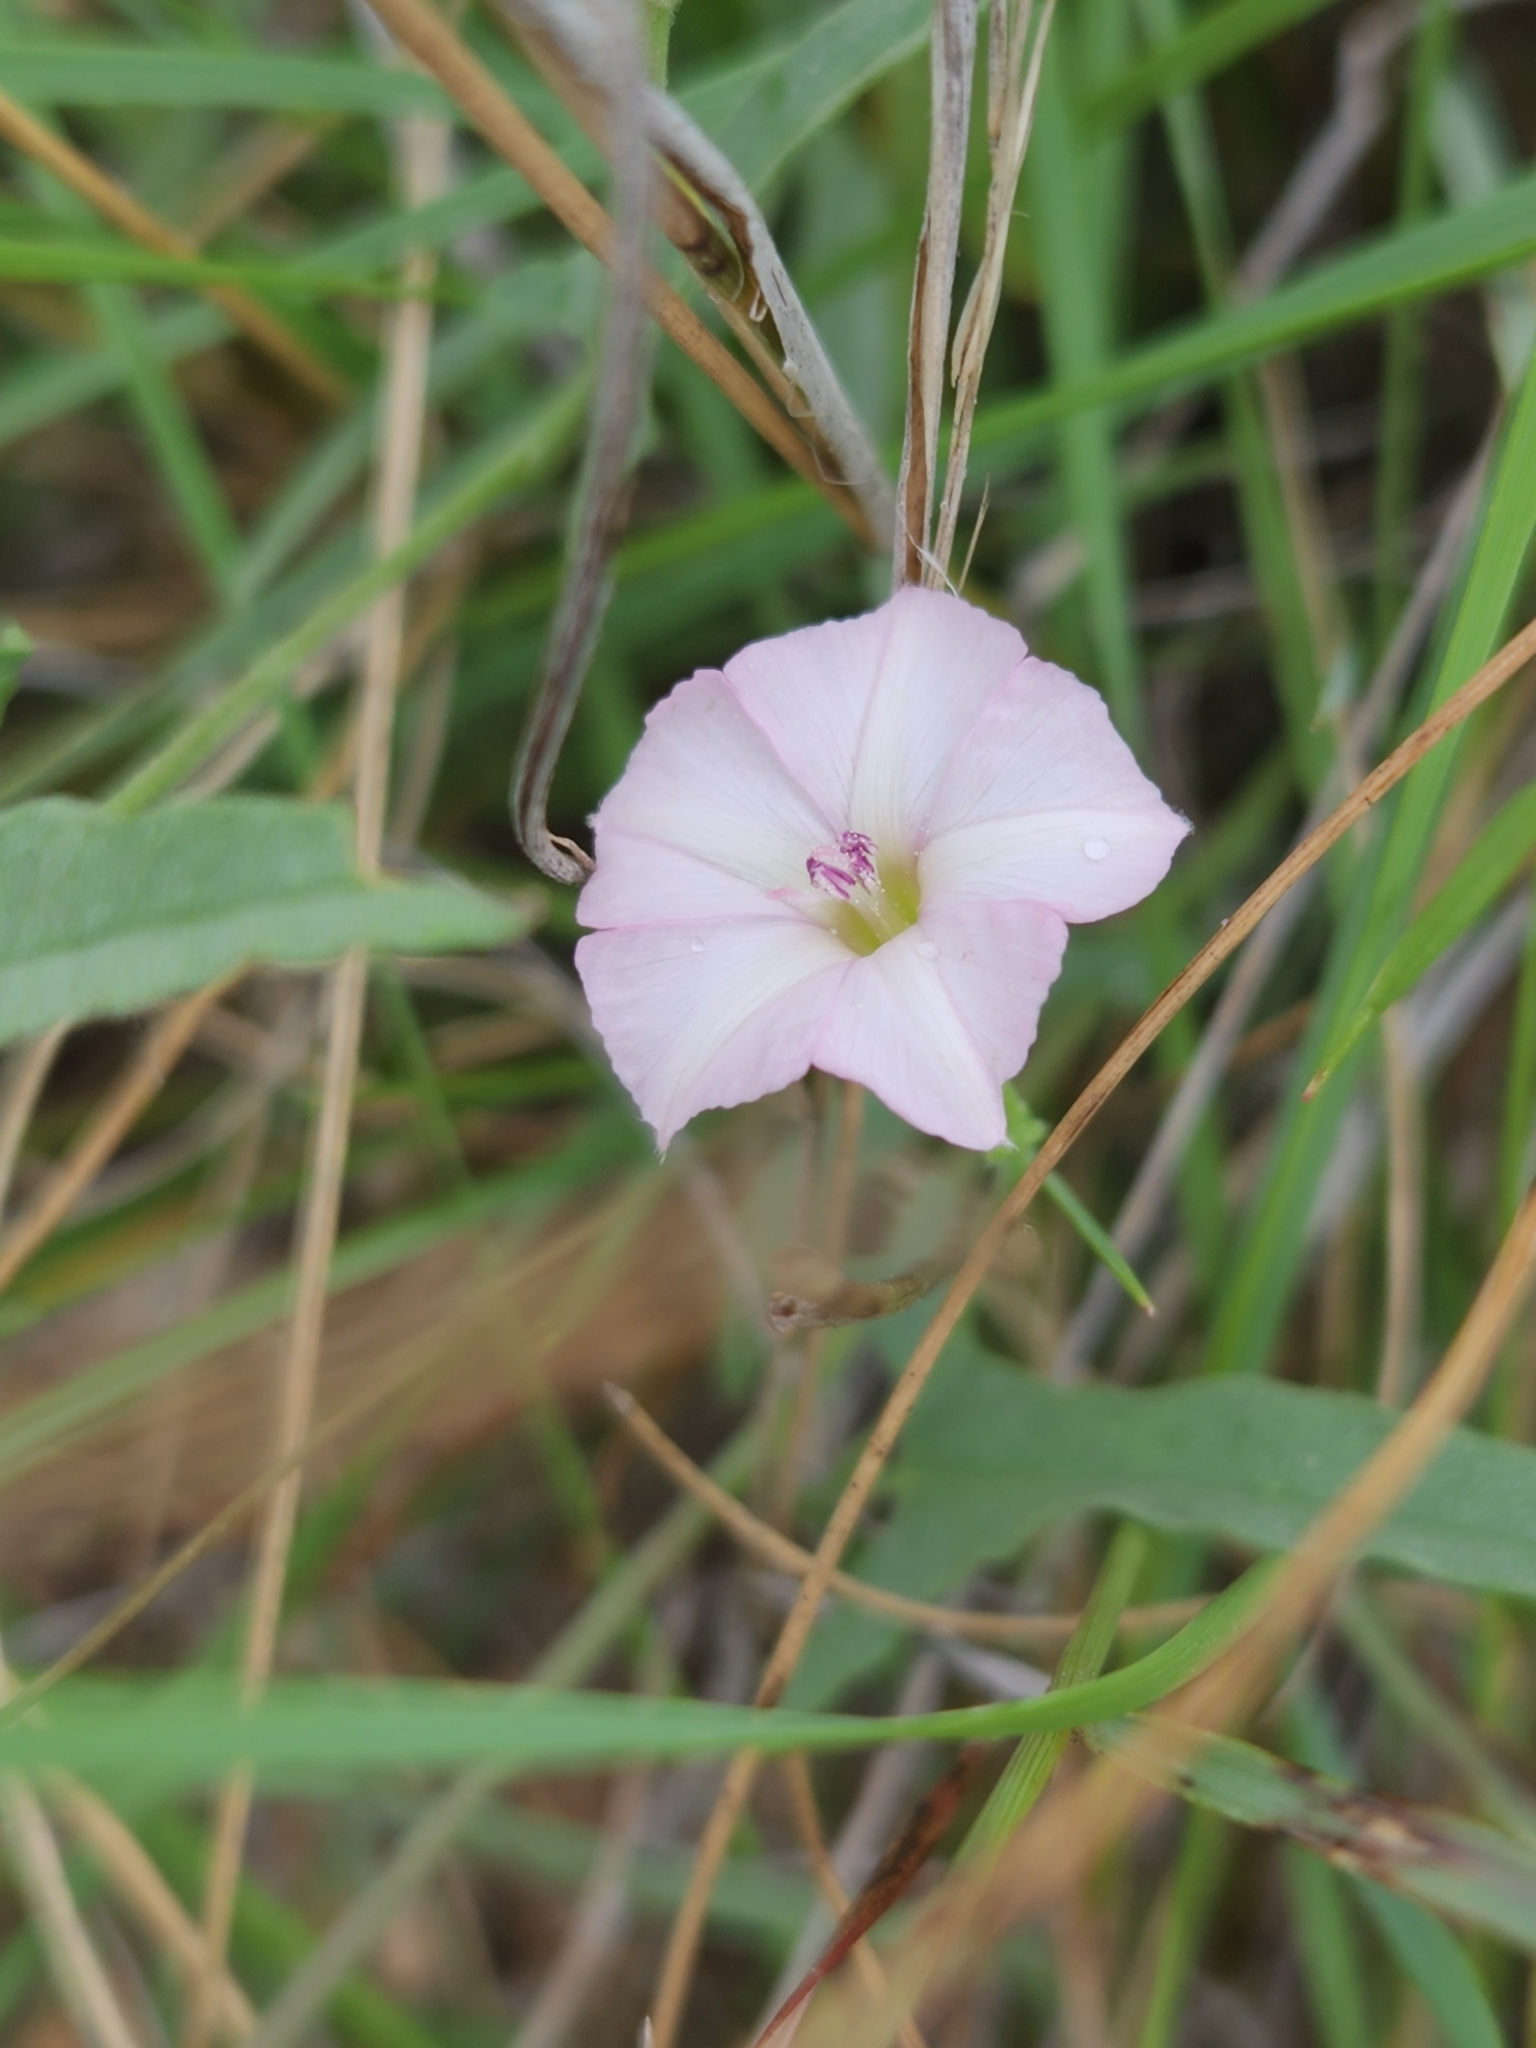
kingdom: Plantae
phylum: Tracheophyta
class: Magnoliopsida
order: Solanales
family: Convolvulaceae
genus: Convolvulus
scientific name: Convolvulus equitans
